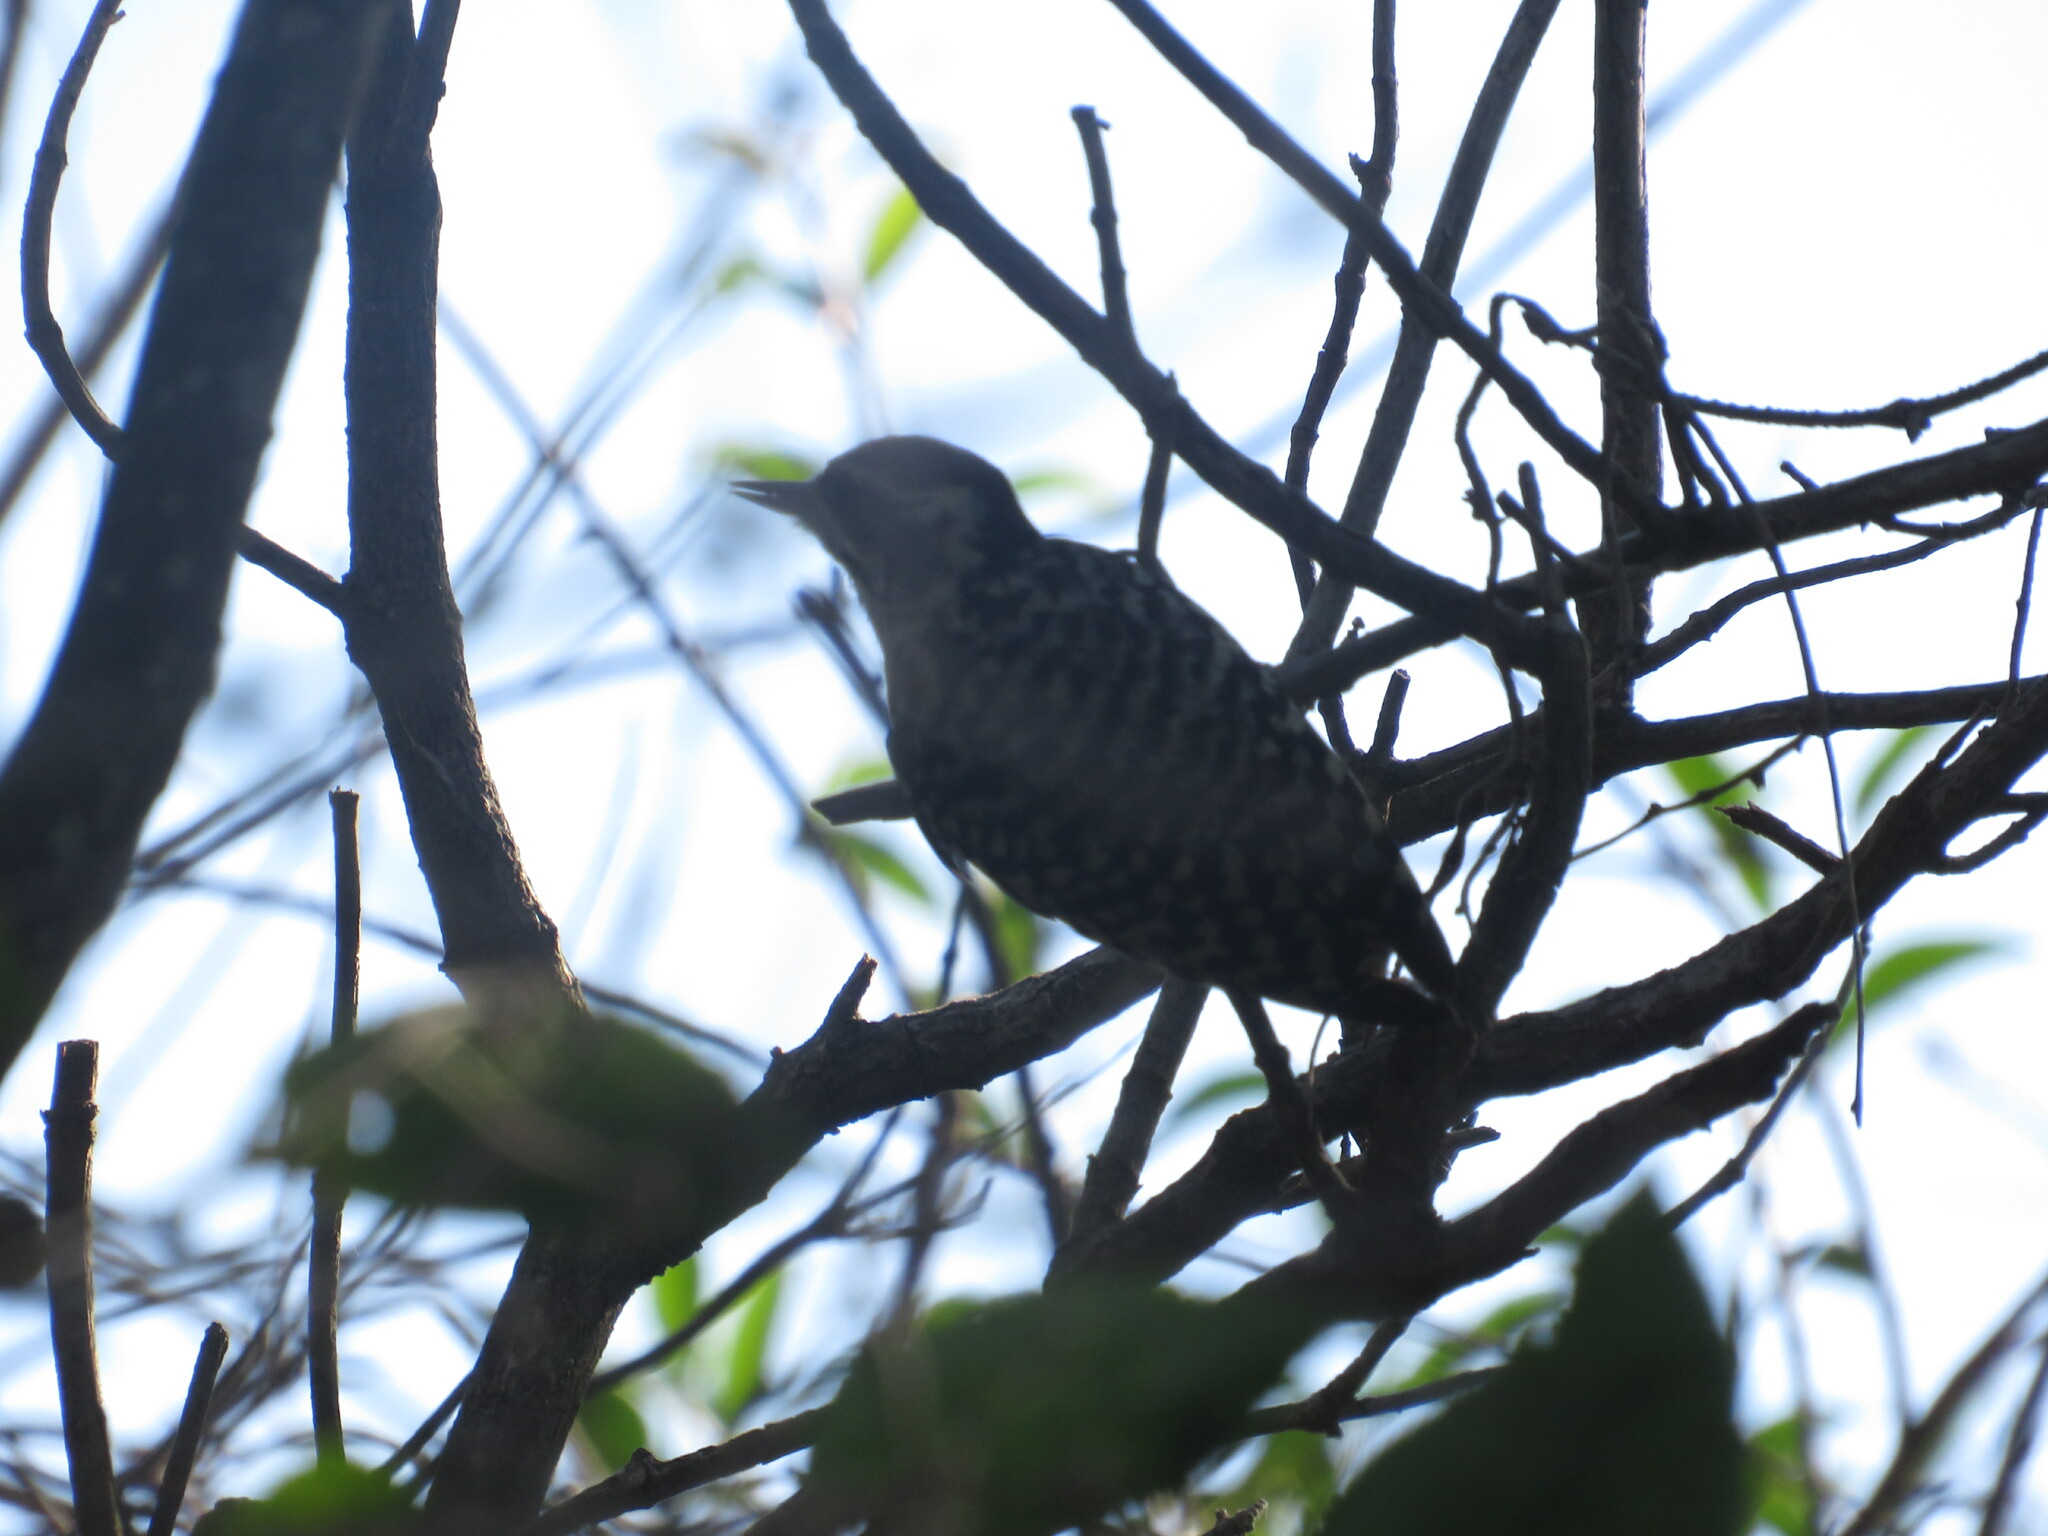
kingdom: Animalia
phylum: Chordata
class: Aves
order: Piciformes
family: Picidae
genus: Veniliornis
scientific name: Veniliornis mixtus
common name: Checkered woodpecker
